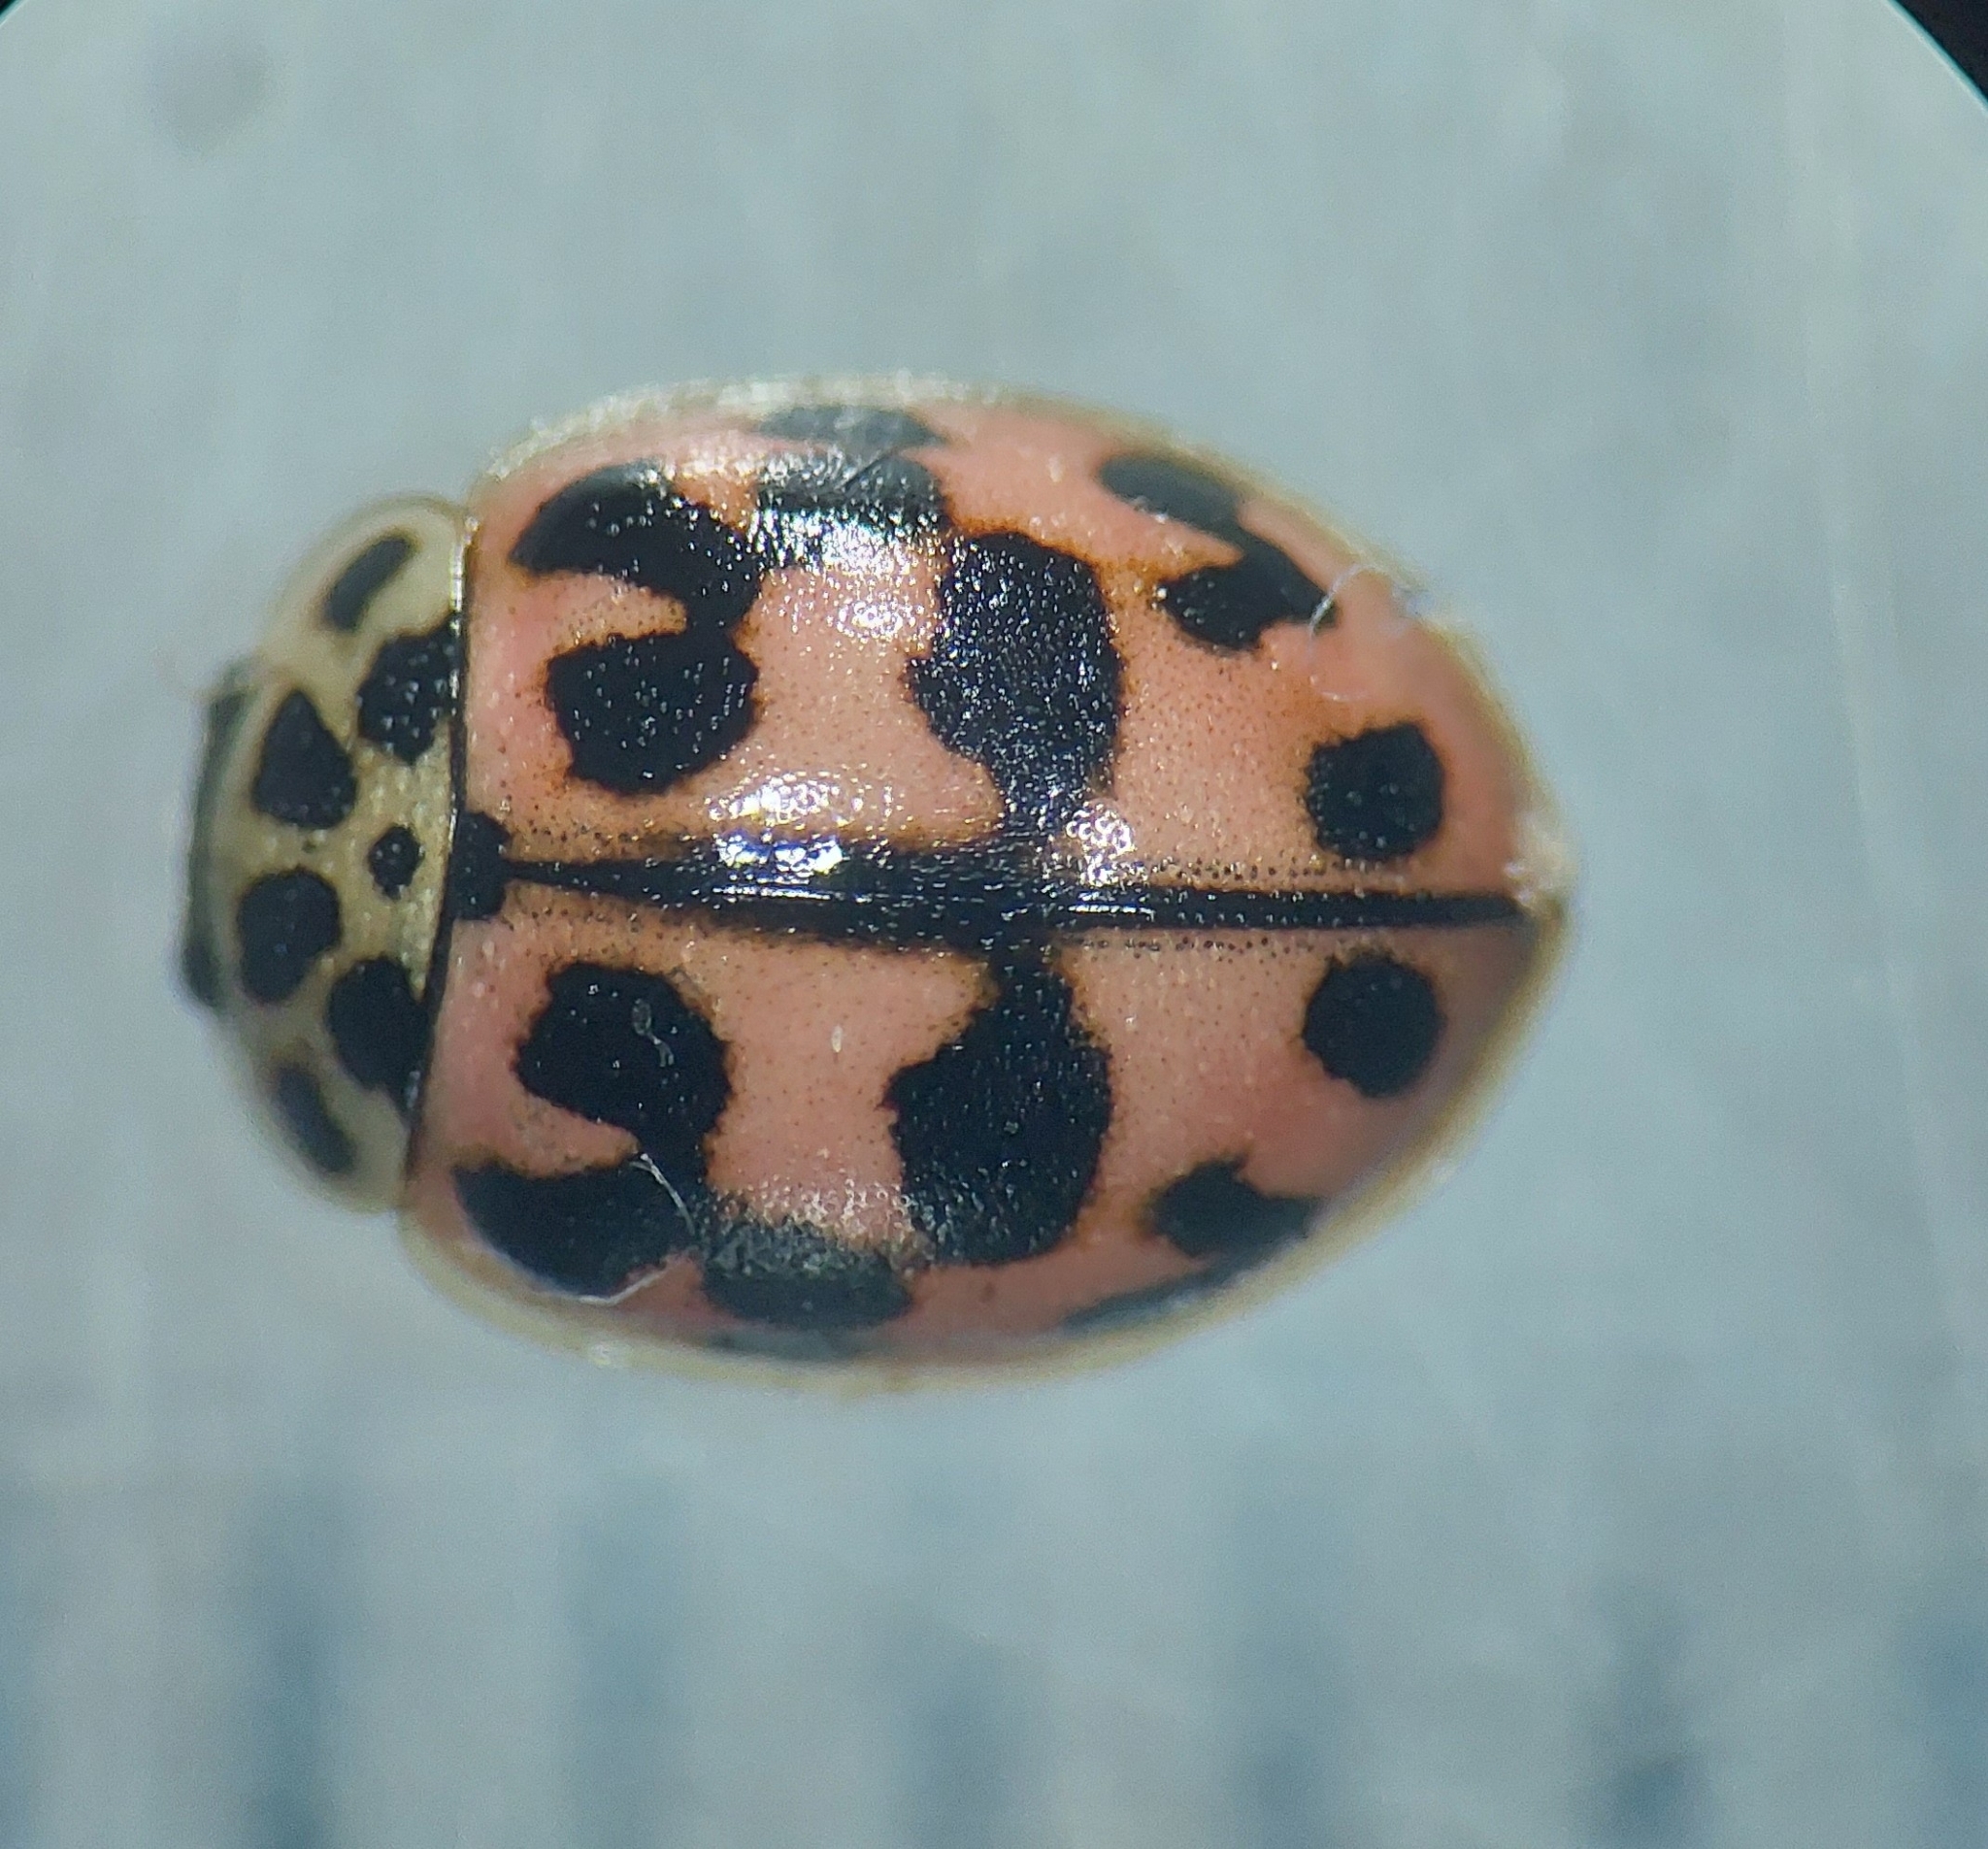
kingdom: Animalia
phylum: Arthropoda
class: Insecta
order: Coleoptera
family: Coccinellidae
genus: Oenopia
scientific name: Oenopia conglobata
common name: Ladybird beetle
